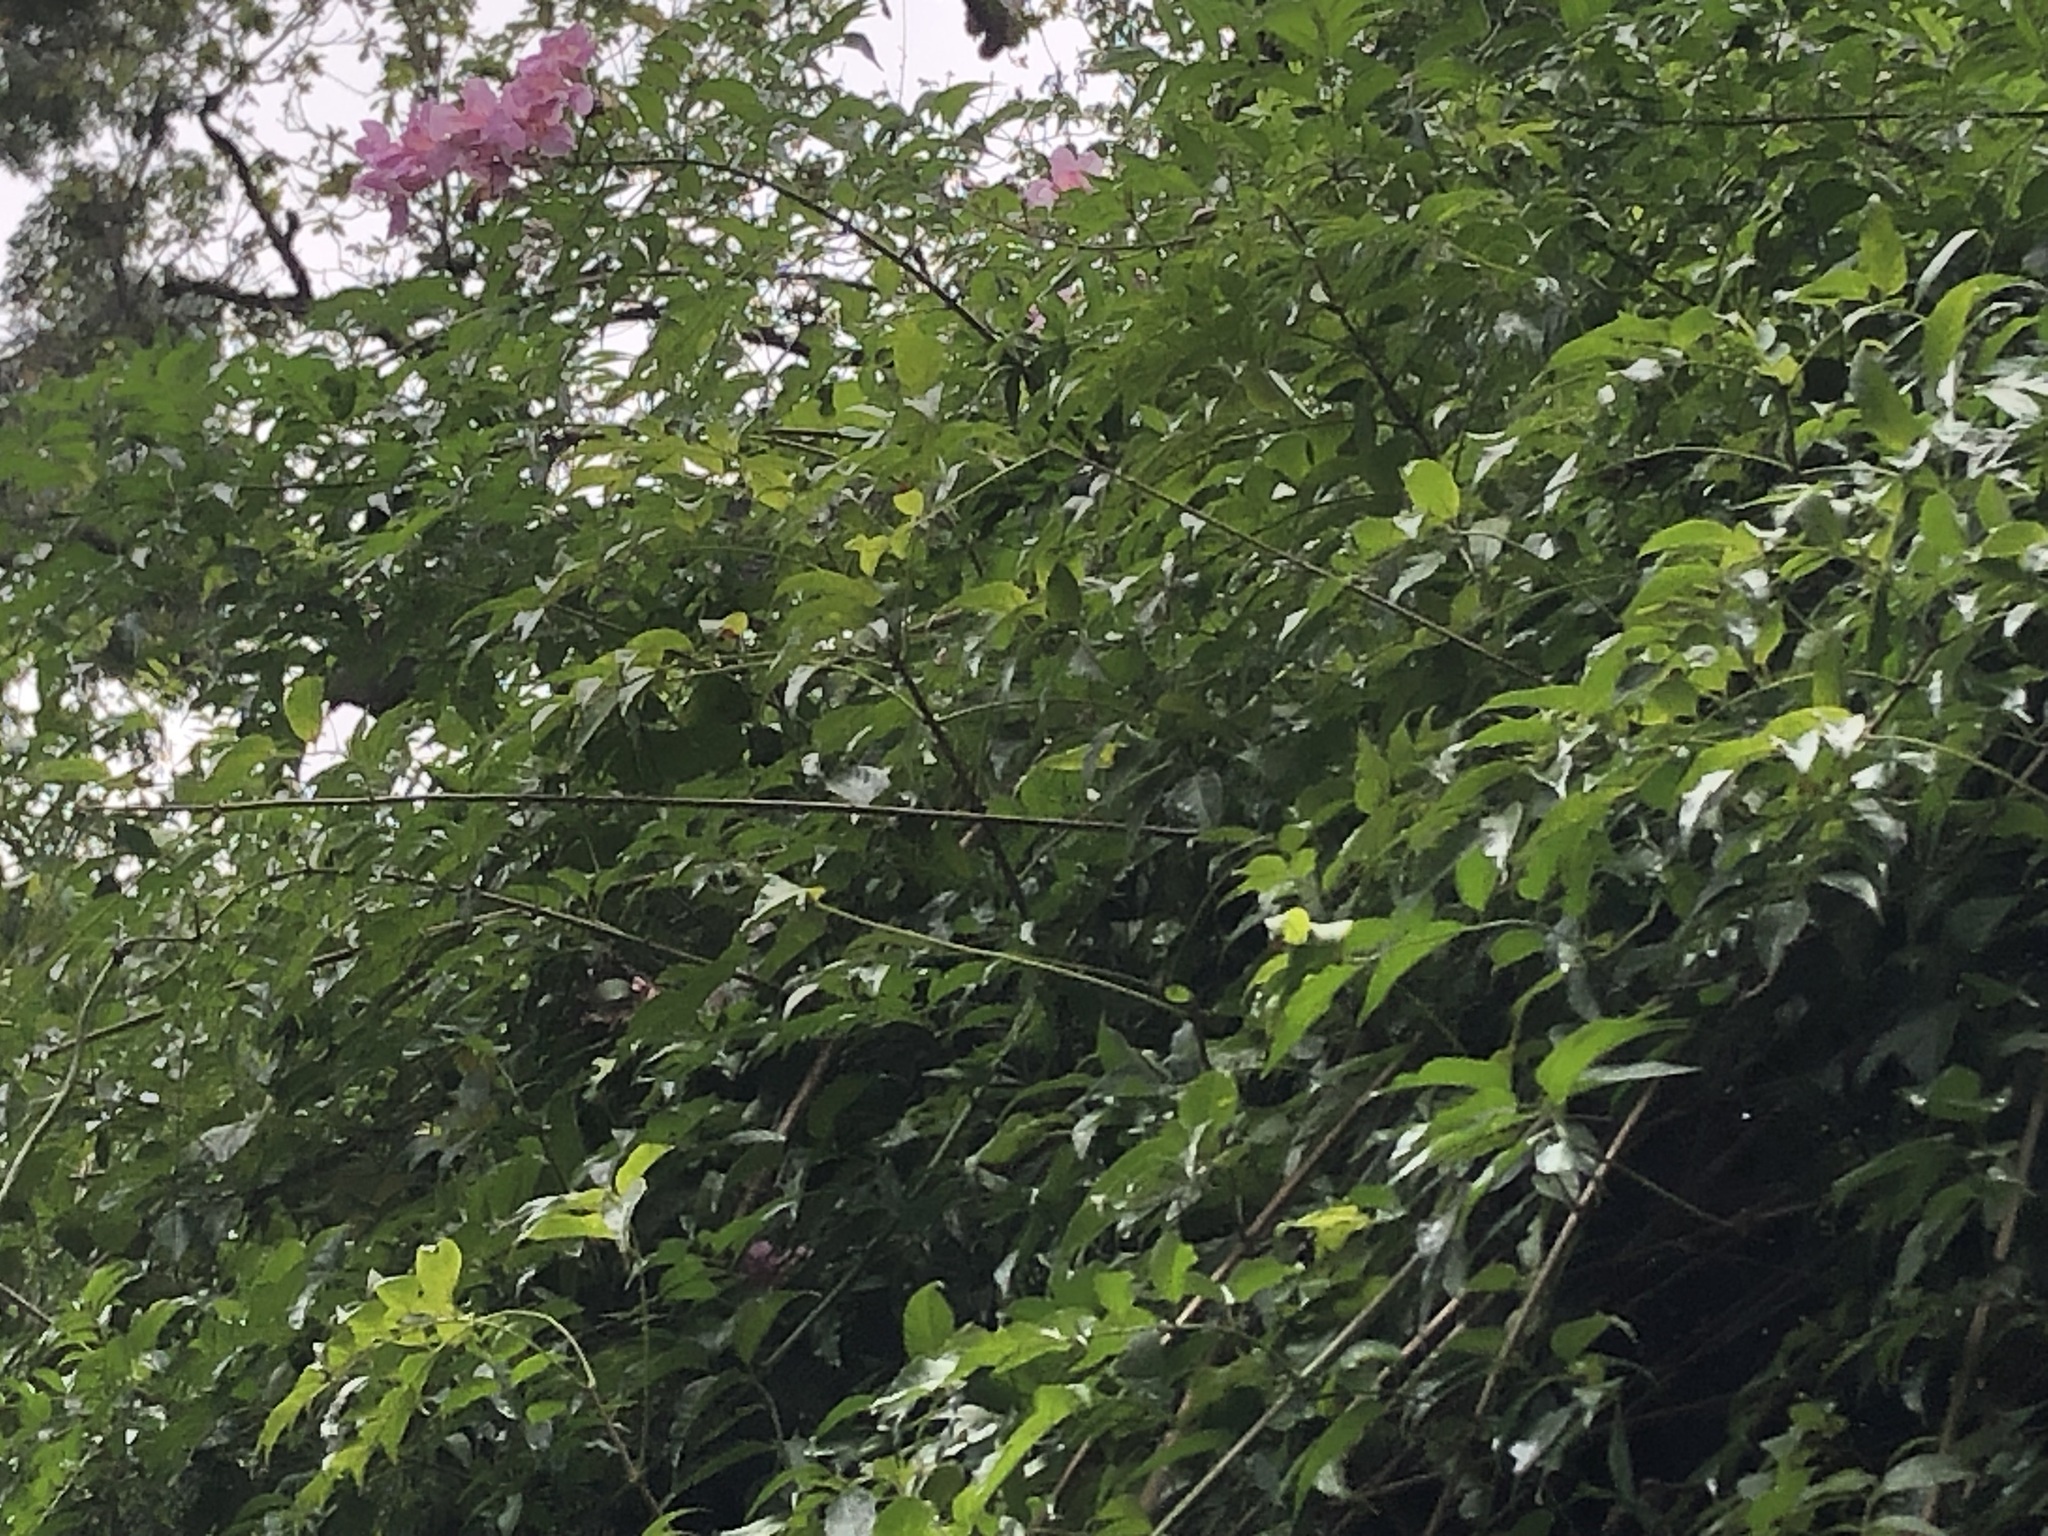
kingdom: Plantae
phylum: Tracheophyta
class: Magnoliopsida
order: Lamiales
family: Bignoniaceae
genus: Podranea
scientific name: Podranea ricasoliana
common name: Zimbabwe creeper
